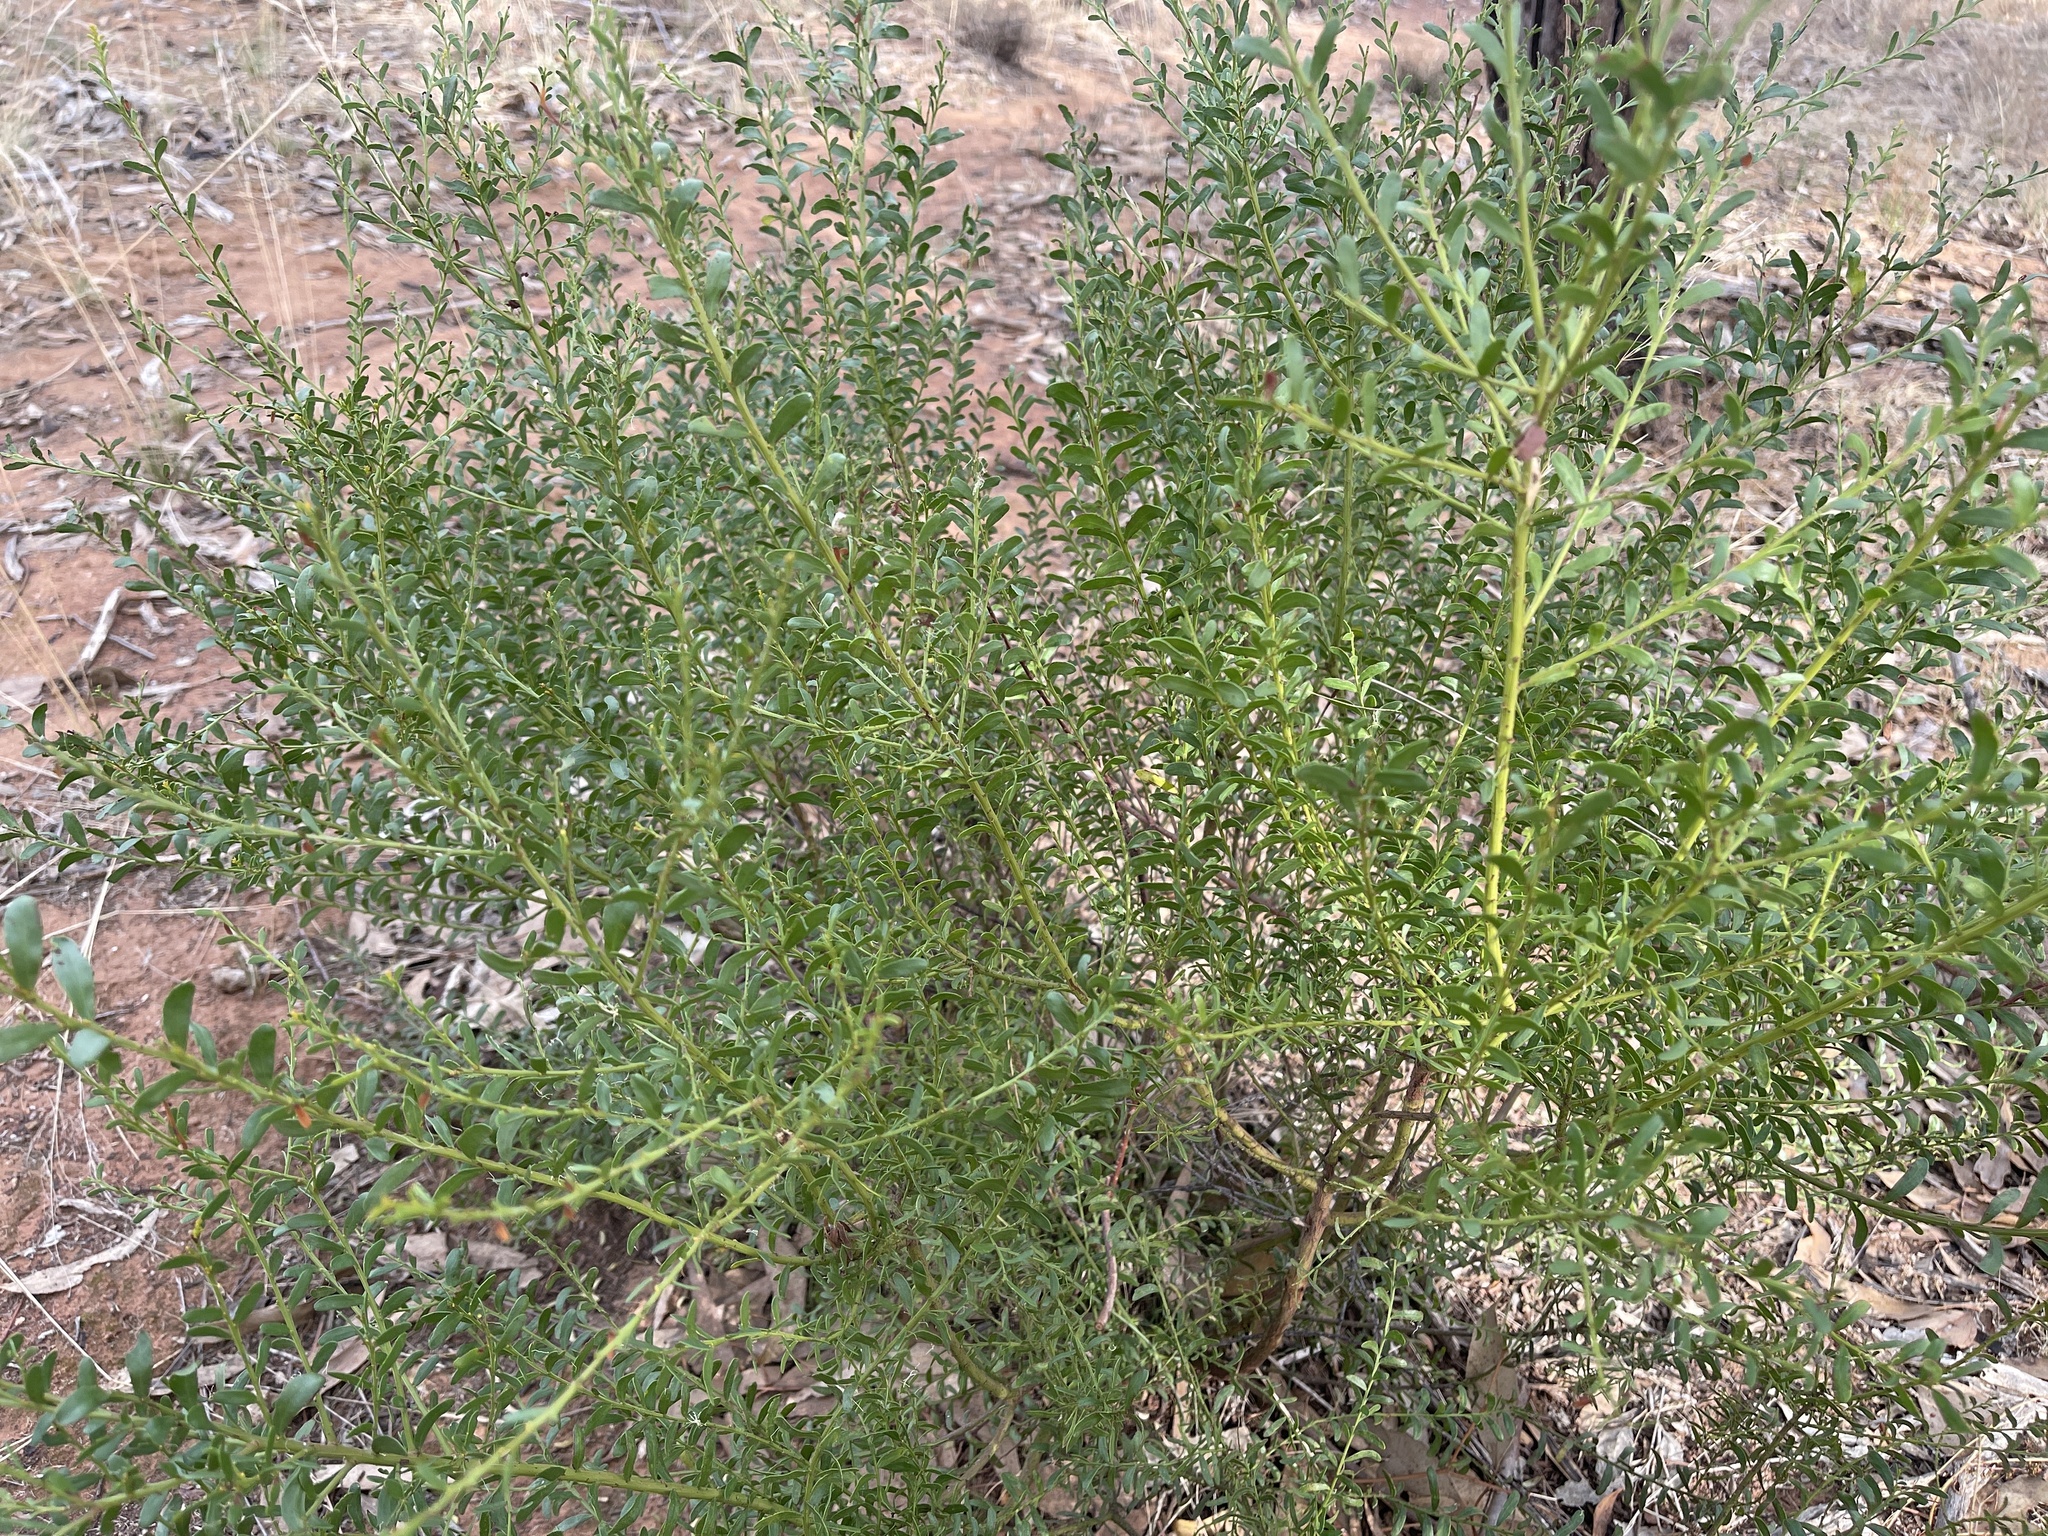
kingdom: Plantae
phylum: Tracheophyta
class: Magnoliopsida
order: Fabales
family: Fabaceae
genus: Acacia
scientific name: Acacia acinacea
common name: Gold-dust acacia
